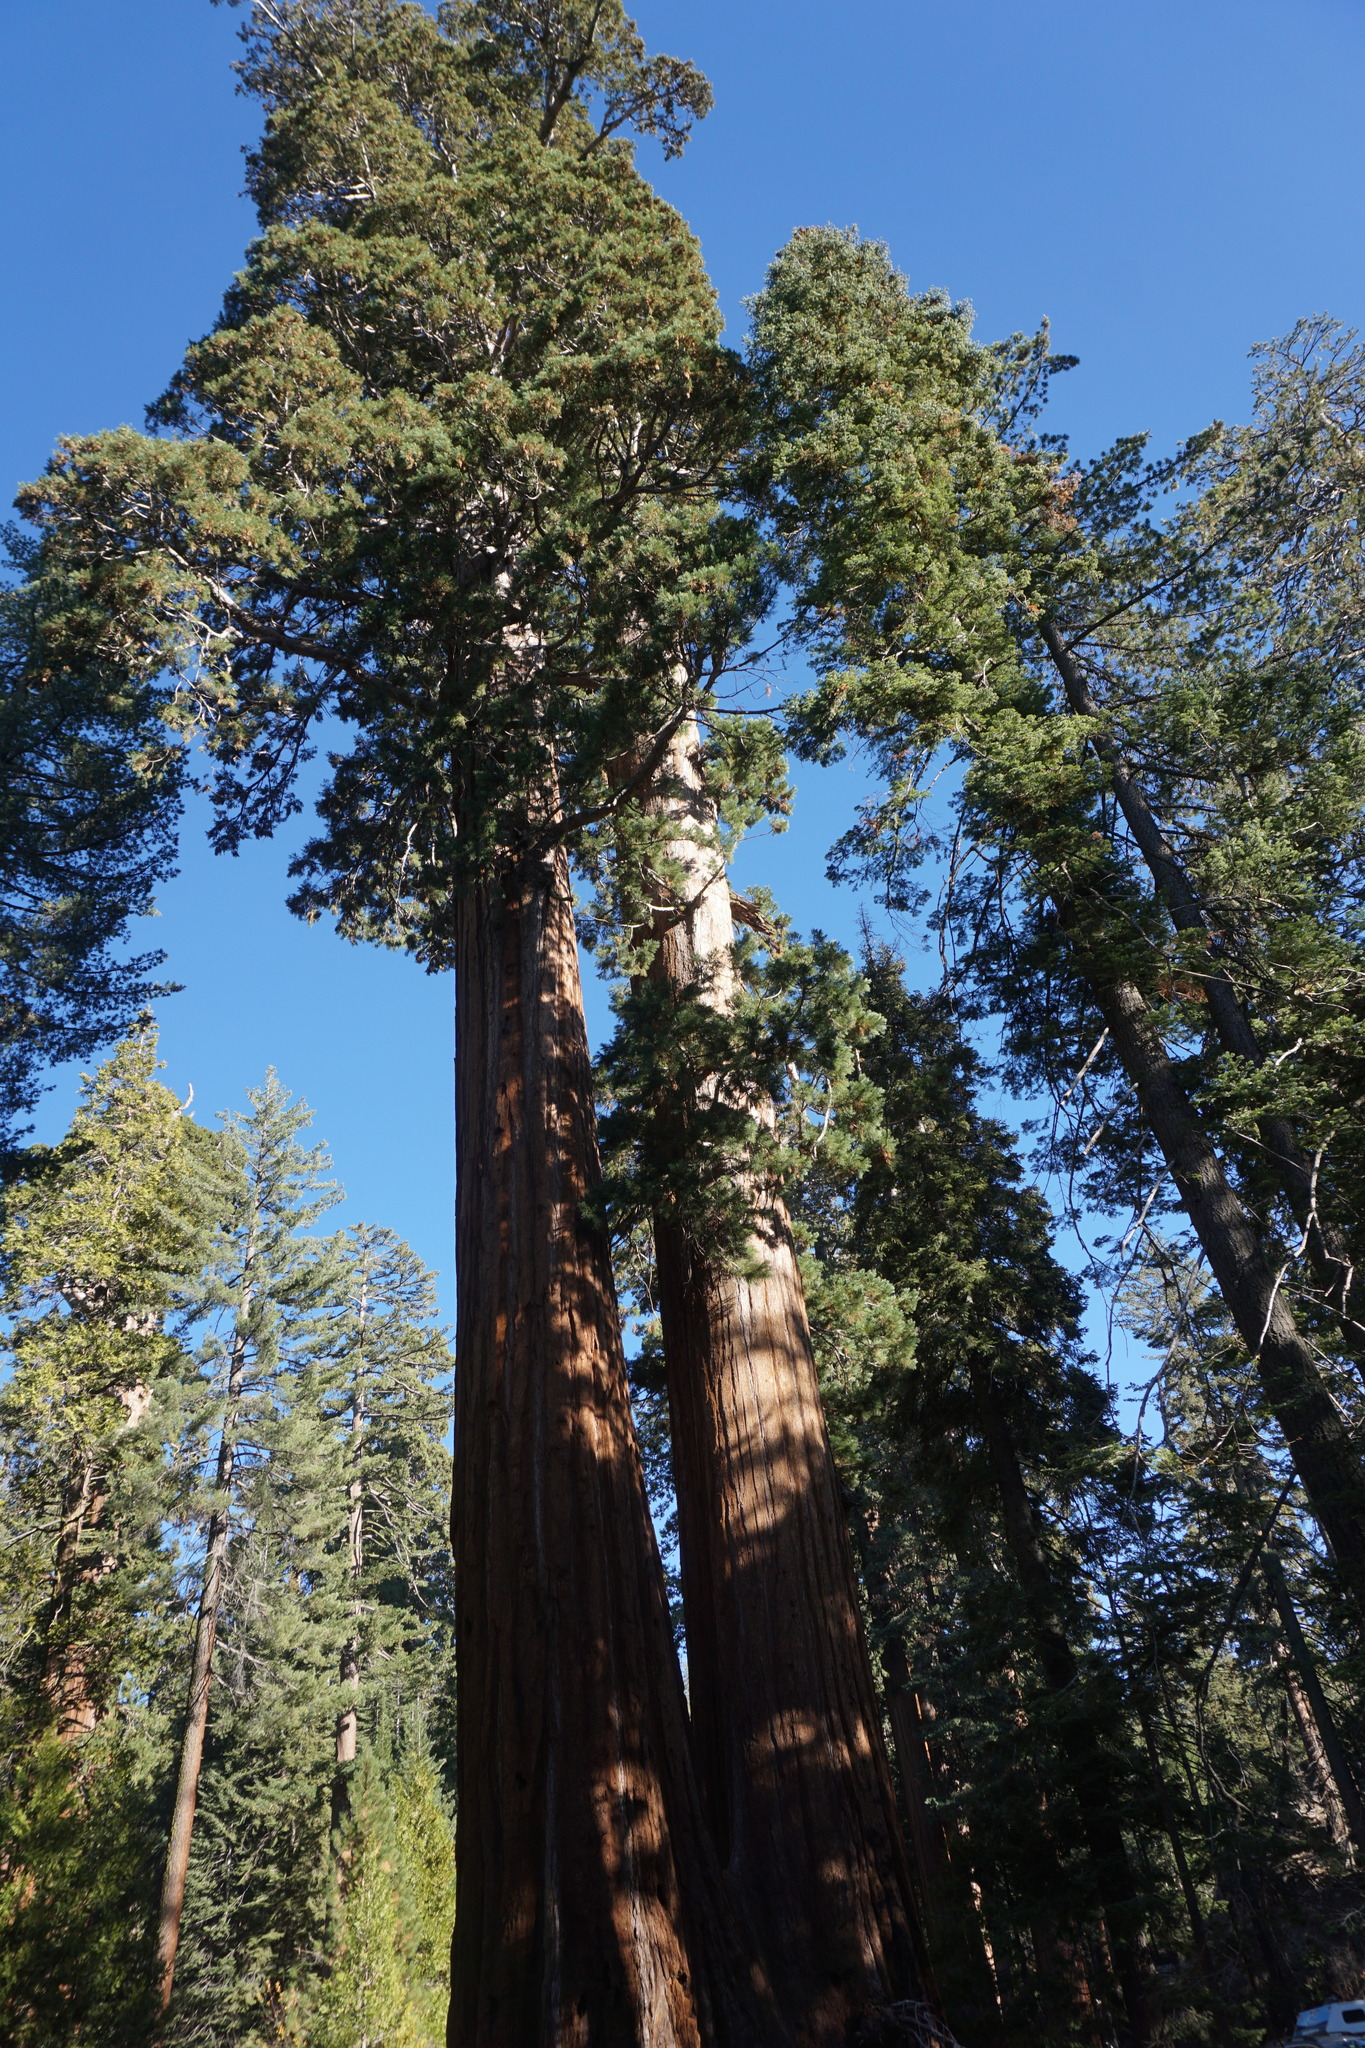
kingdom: Plantae
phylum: Tracheophyta
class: Pinopsida
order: Pinales
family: Cupressaceae
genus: Sequoiadendron
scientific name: Sequoiadendron giganteum
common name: Wellingtonia
